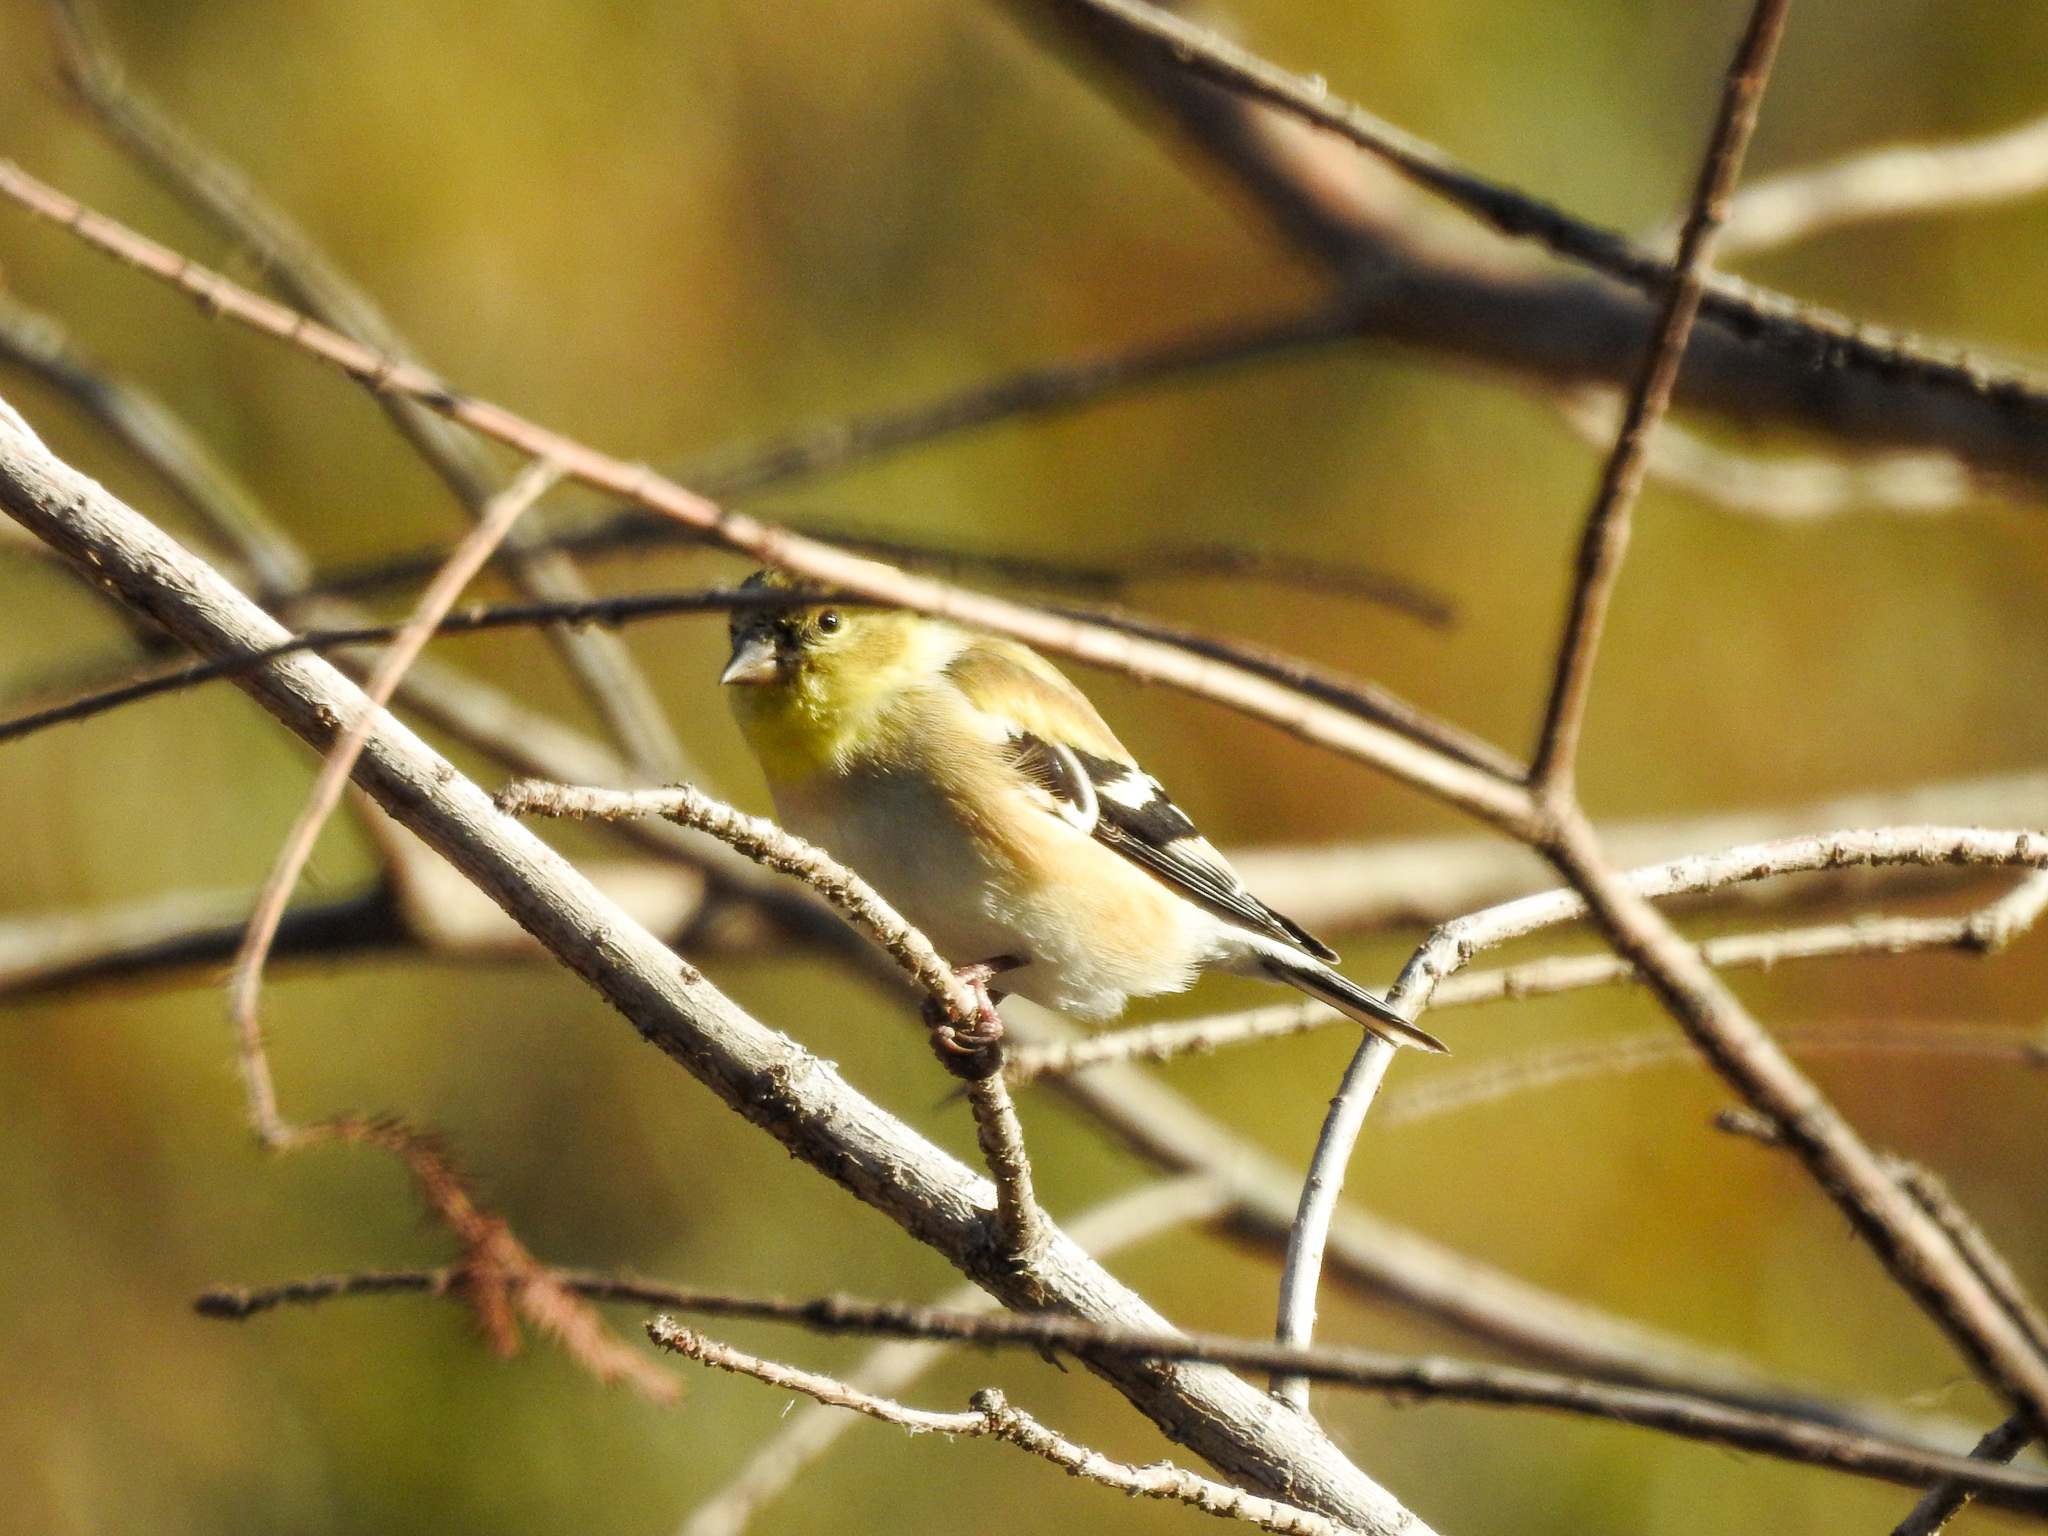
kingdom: Animalia
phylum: Chordata
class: Aves
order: Passeriformes
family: Fringillidae
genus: Spinus
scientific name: Spinus tristis
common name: American goldfinch
